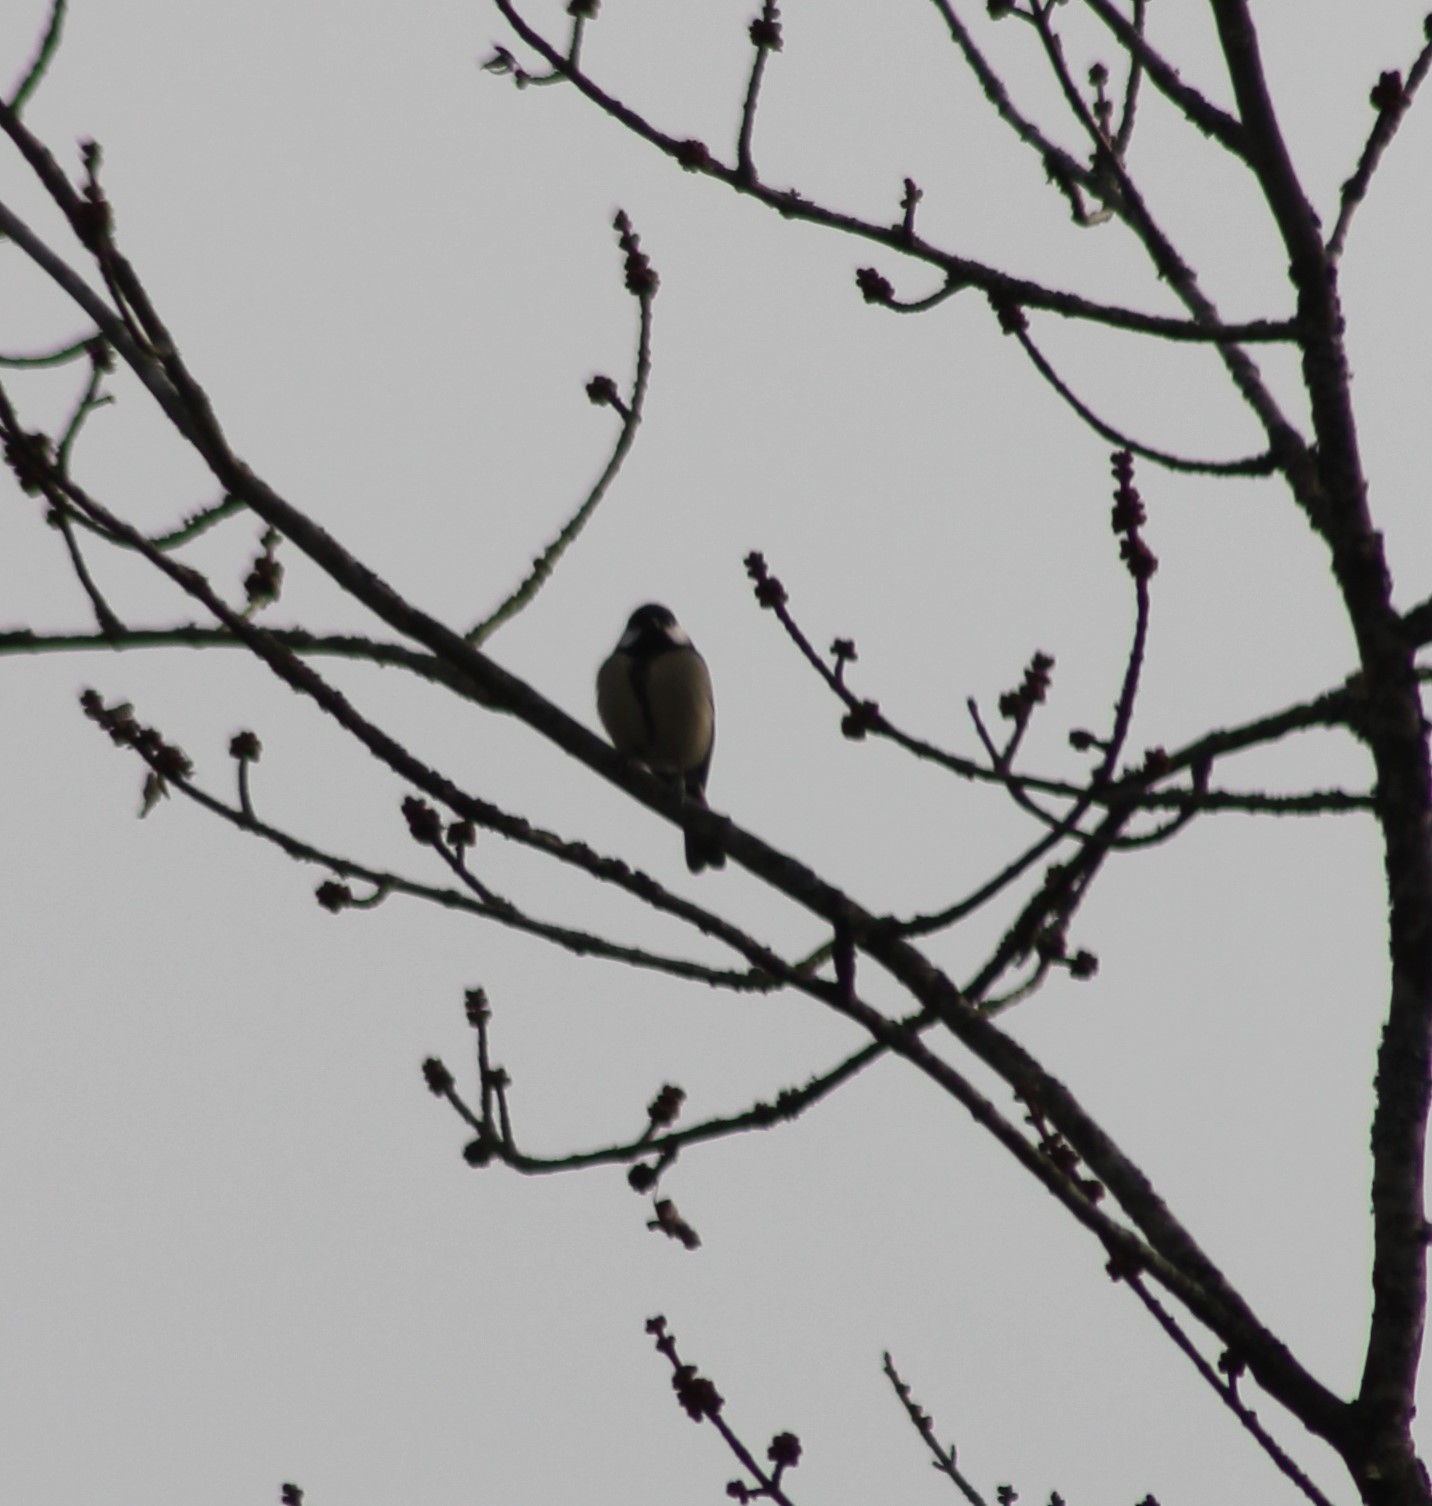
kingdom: Animalia
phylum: Chordata
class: Aves
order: Passeriformes
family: Paridae
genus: Parus
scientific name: Parus major
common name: Great tit
